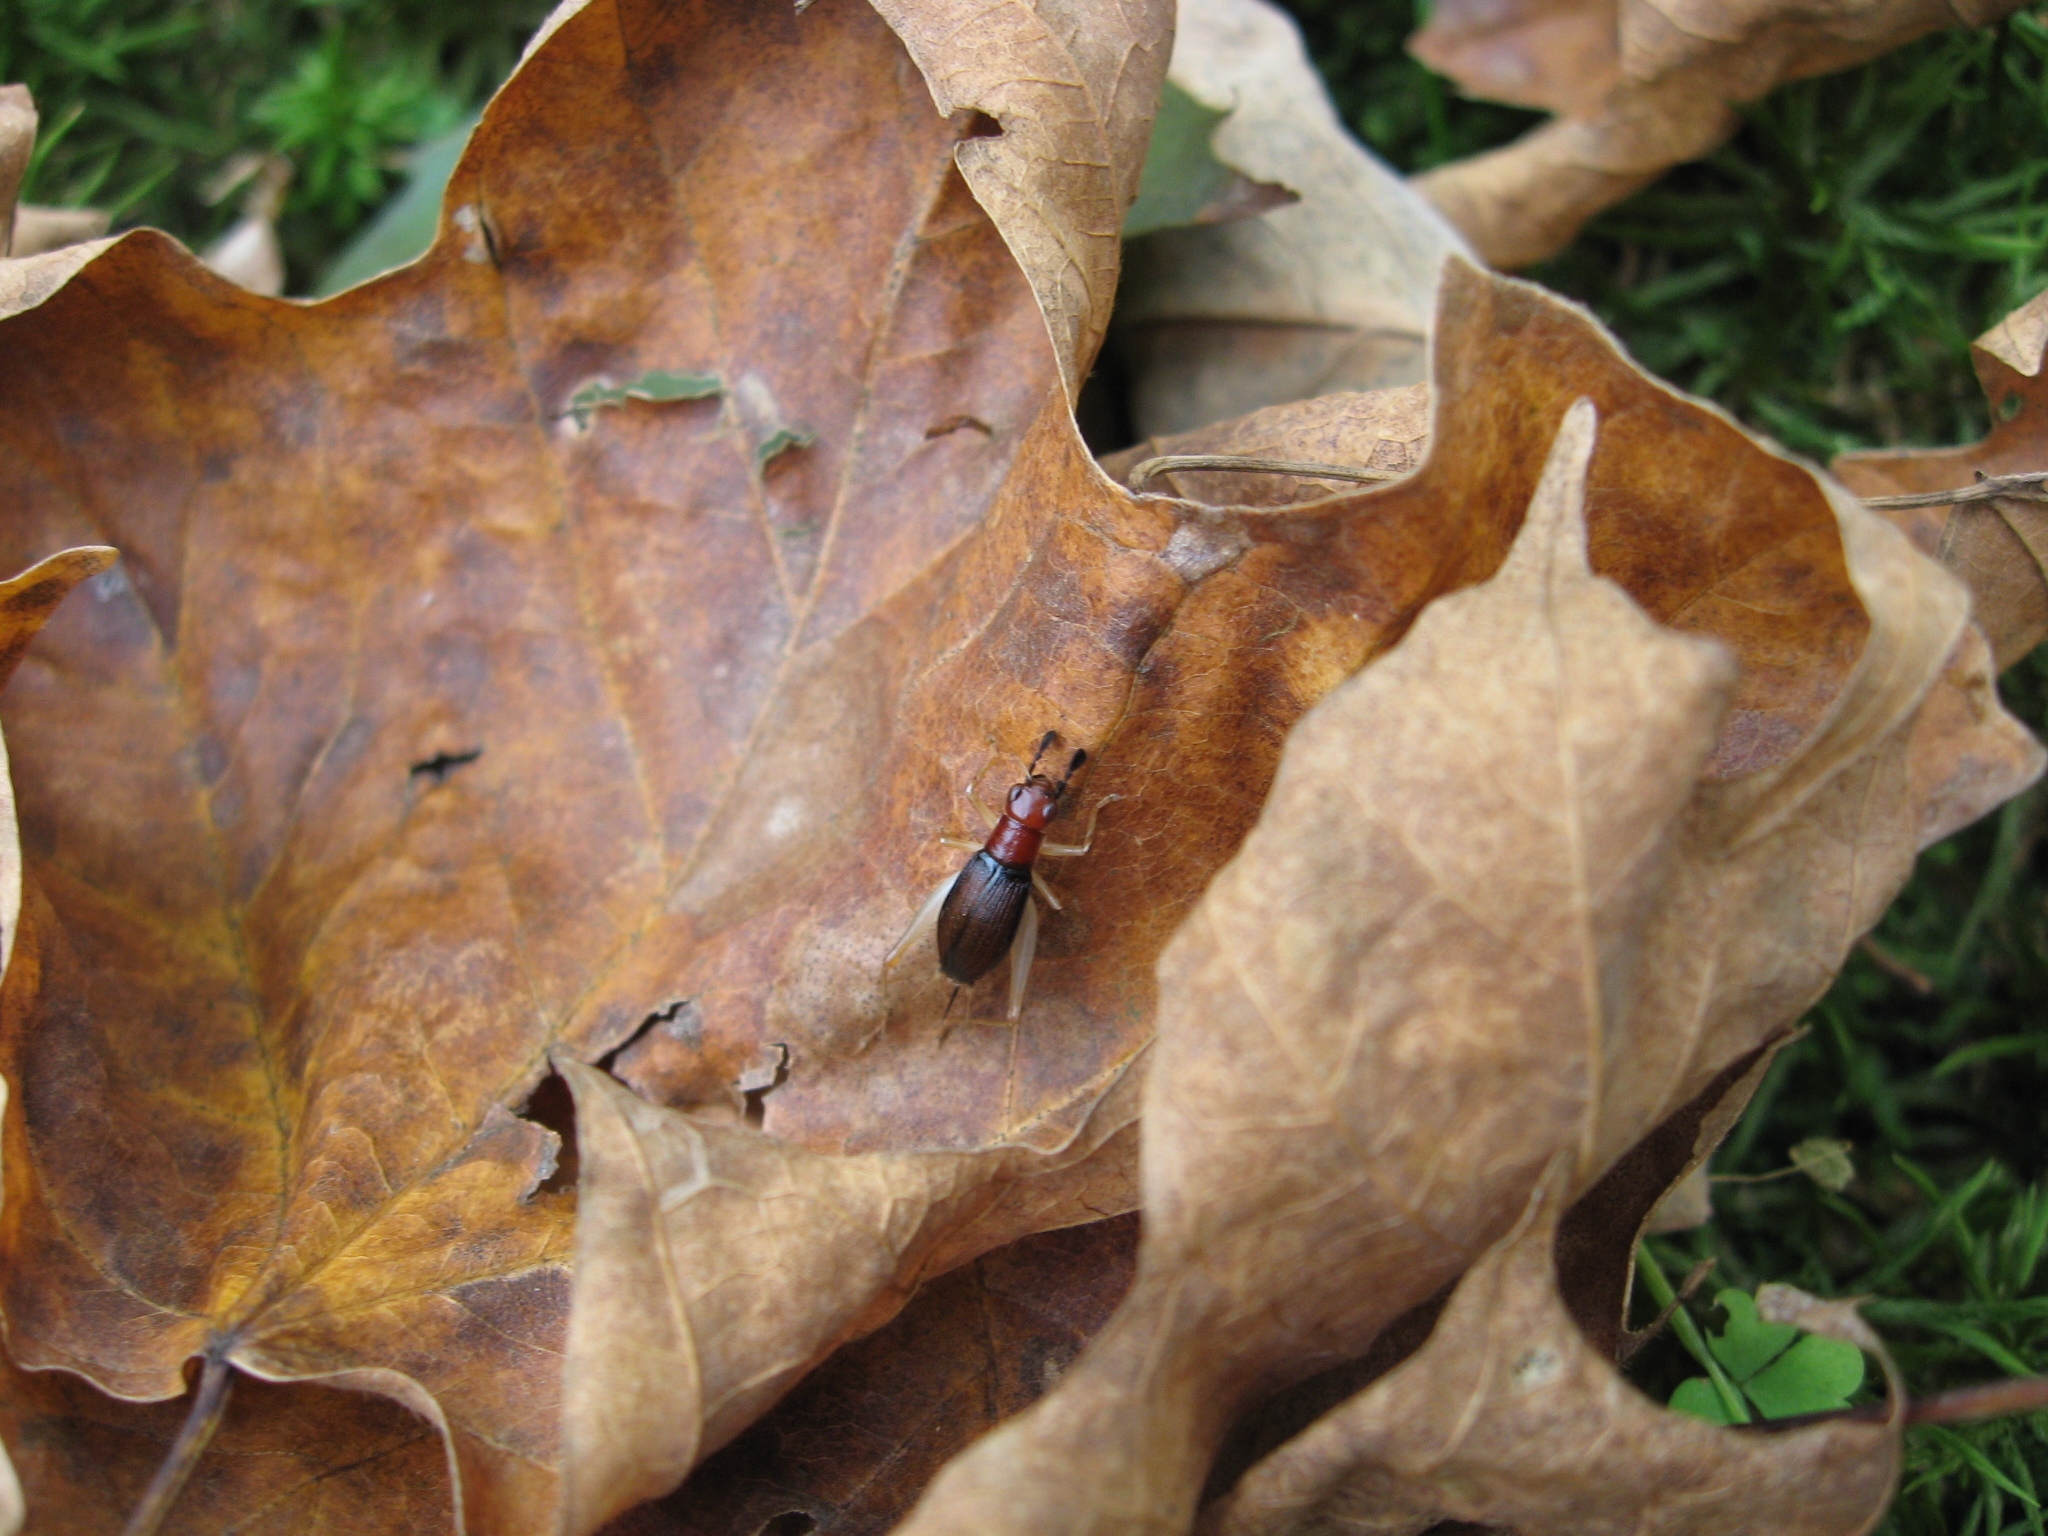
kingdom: Animalia
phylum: Arthropoda
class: Insecta
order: Orthoptera
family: Trigonidiidae
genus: Phyllopalpus
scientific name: Phyllopalpus pulchellus
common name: Handsome trig
